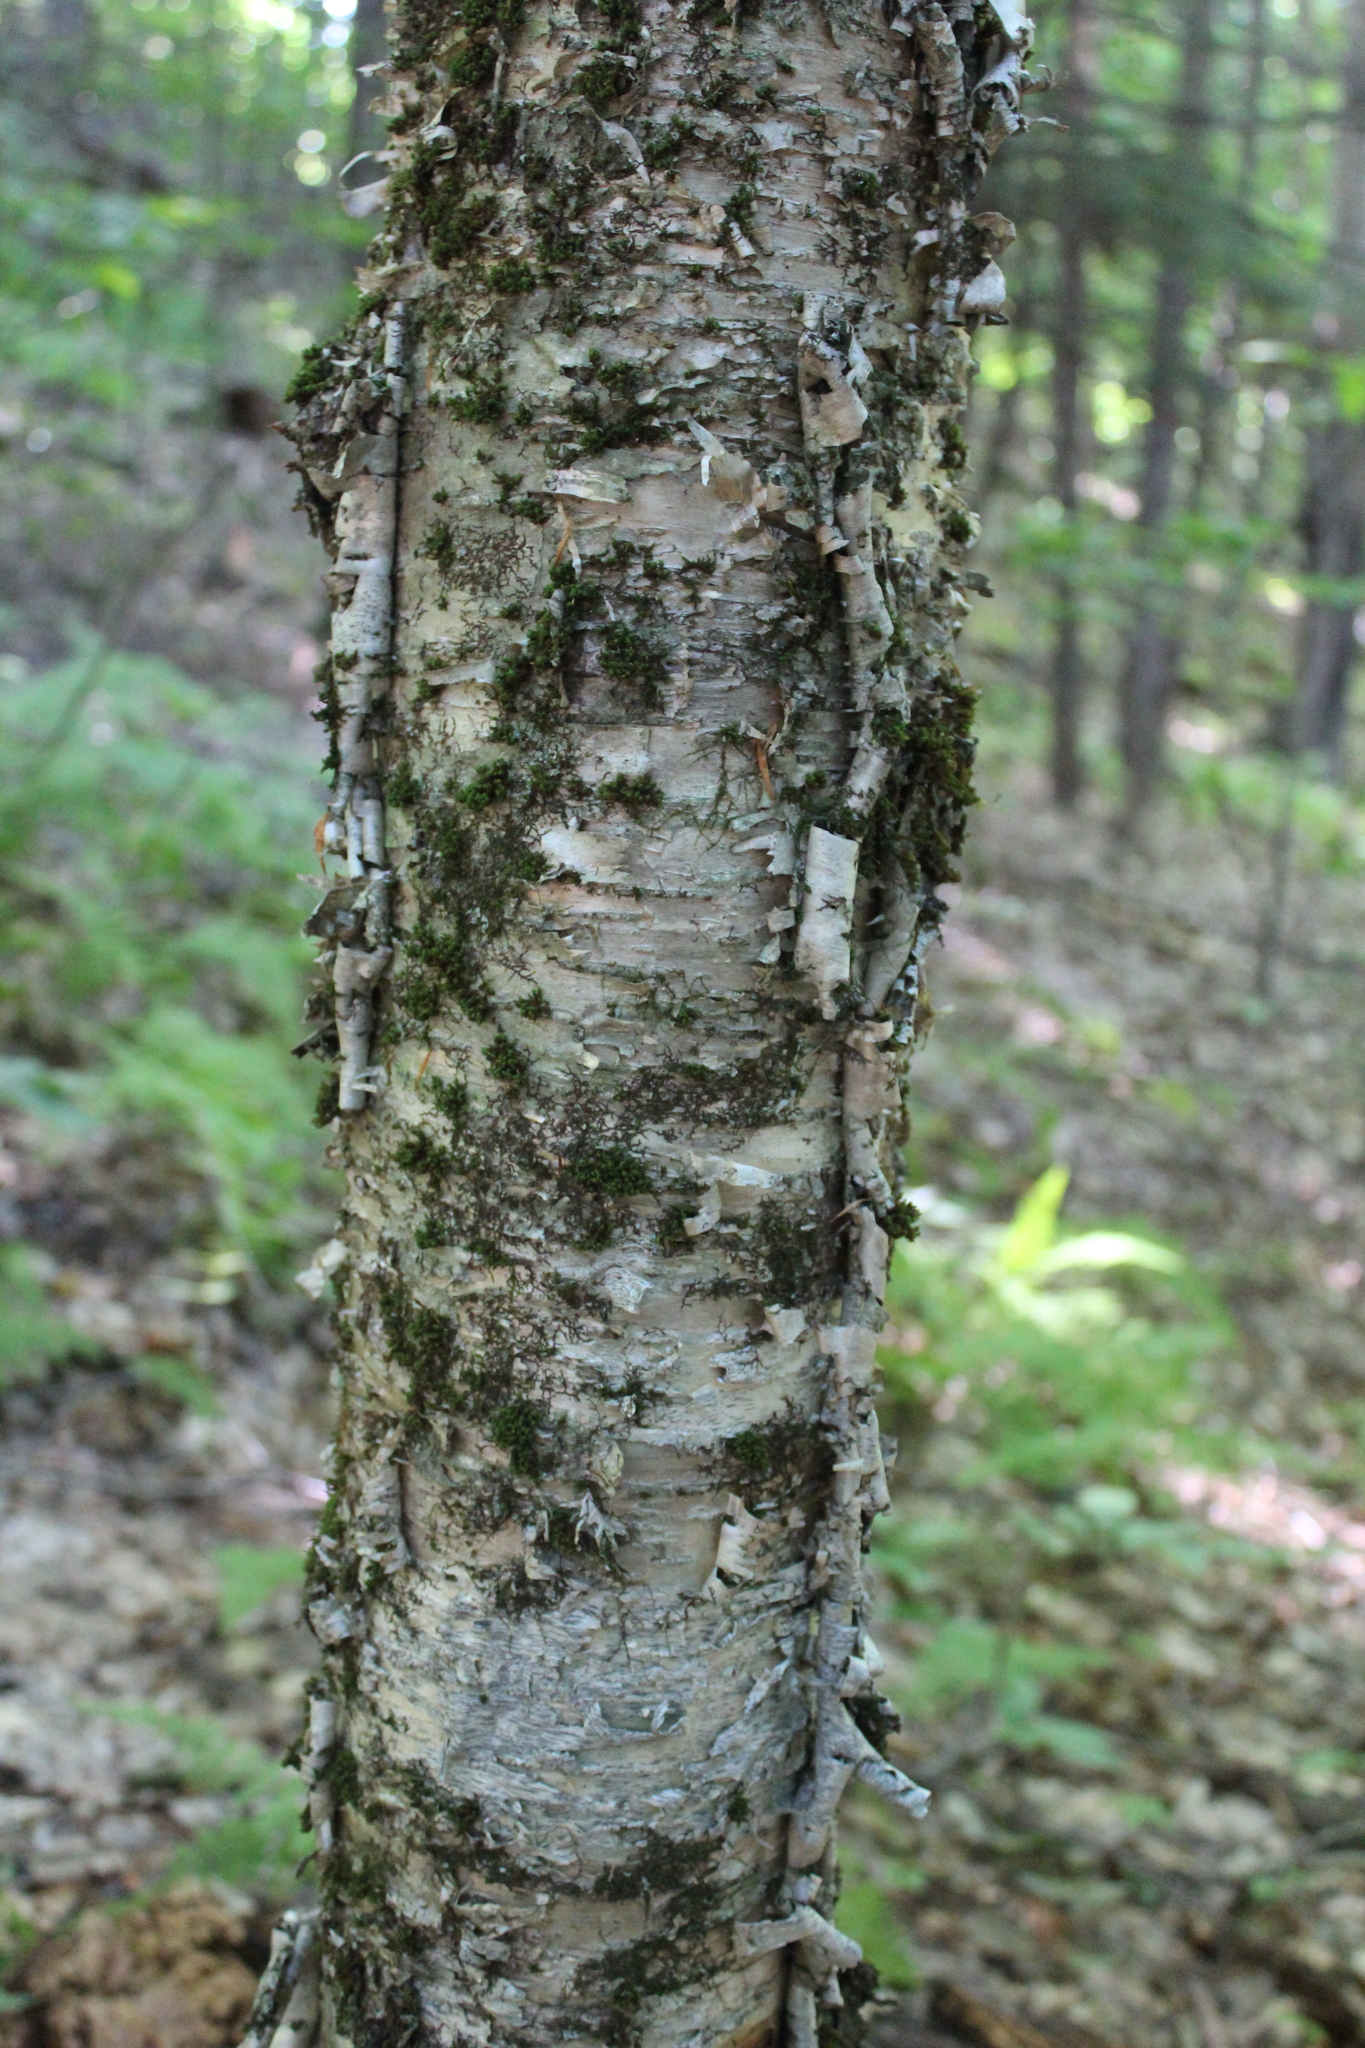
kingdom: Plantae
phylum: Tracheophyta
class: Magnoliopsida
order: Fagales
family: Betulaceae
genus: Betula
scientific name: Betula alleghaniensis
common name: Yellow birch
